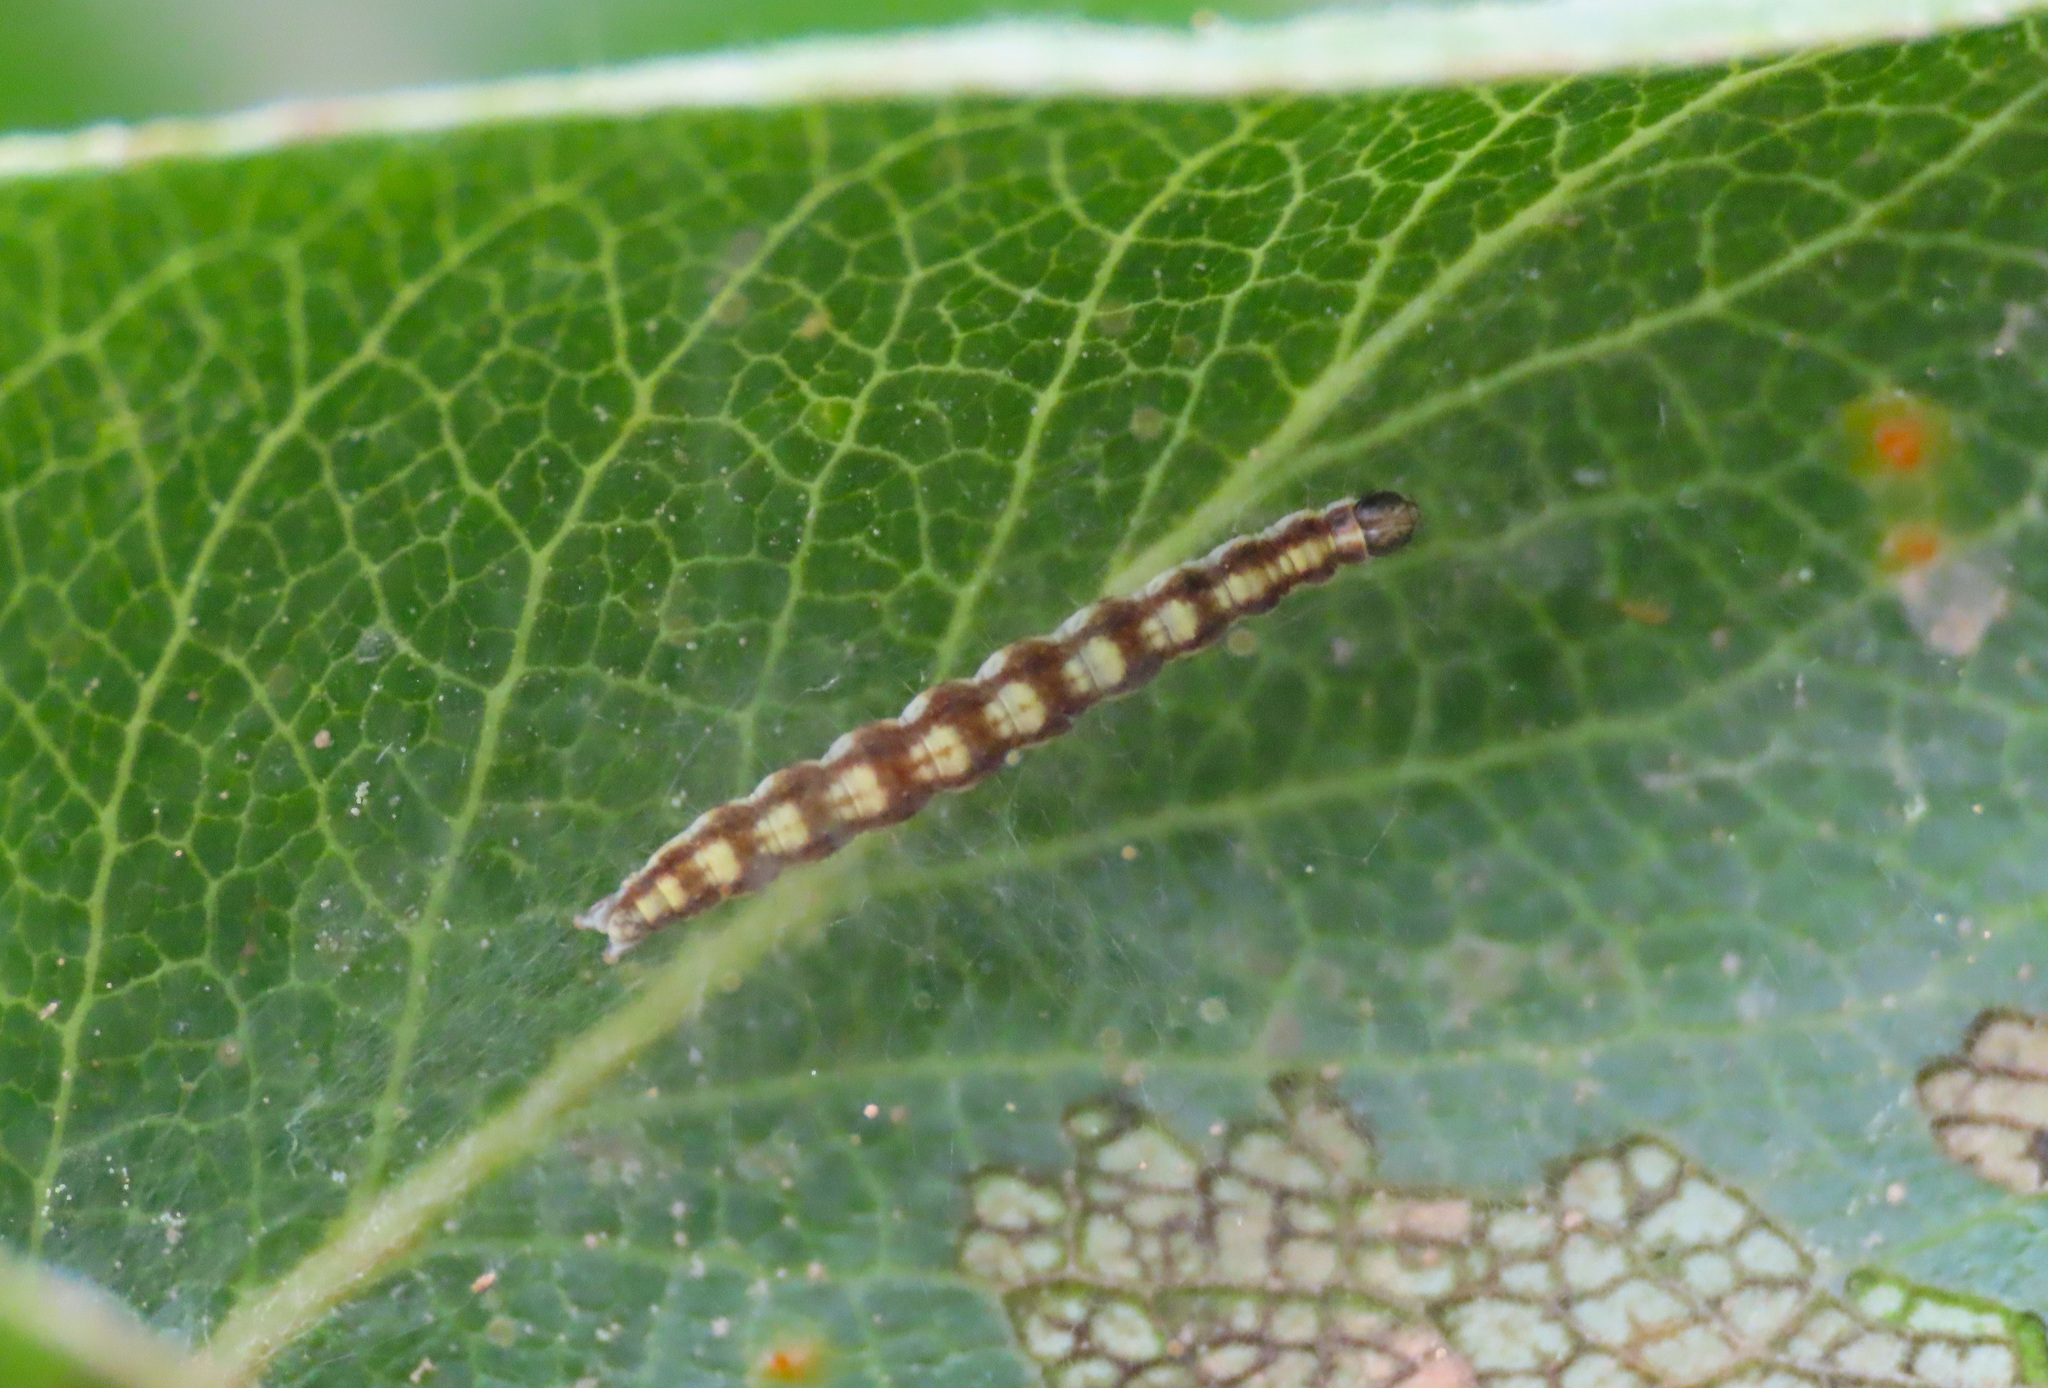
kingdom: Animalia
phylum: Arthropoda
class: Insecta
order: Lepidoptera
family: Yponomeutidae
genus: Swammerdamia
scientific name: Swammerdamia pyrella
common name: Little ermine moth
